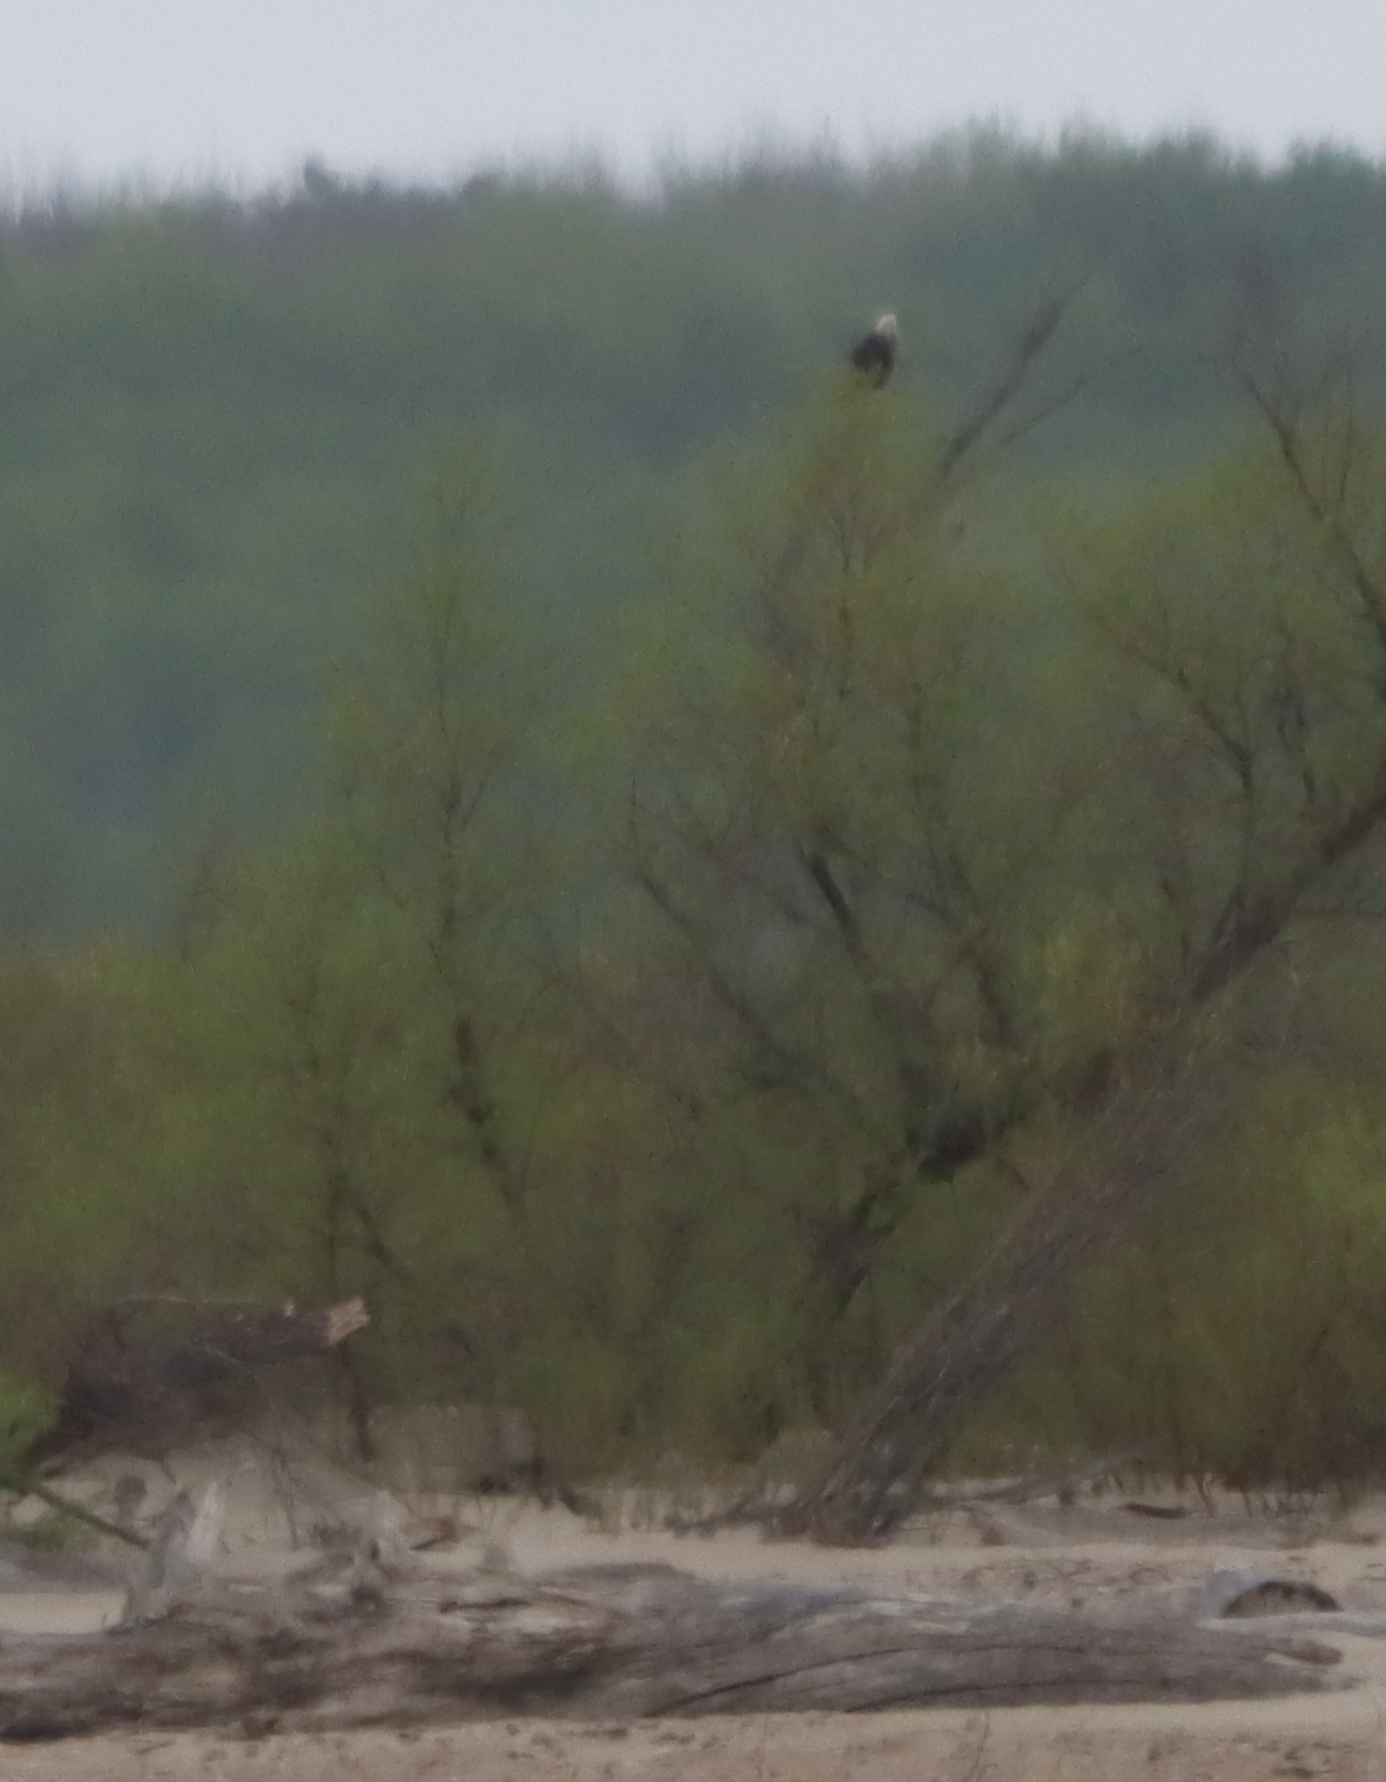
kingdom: Animalia
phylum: Chordata
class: Aves
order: Accipitriformes
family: Accipitridae
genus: Haliaeetus
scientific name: Haliaeetus leucocephalus
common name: Bald eagle
